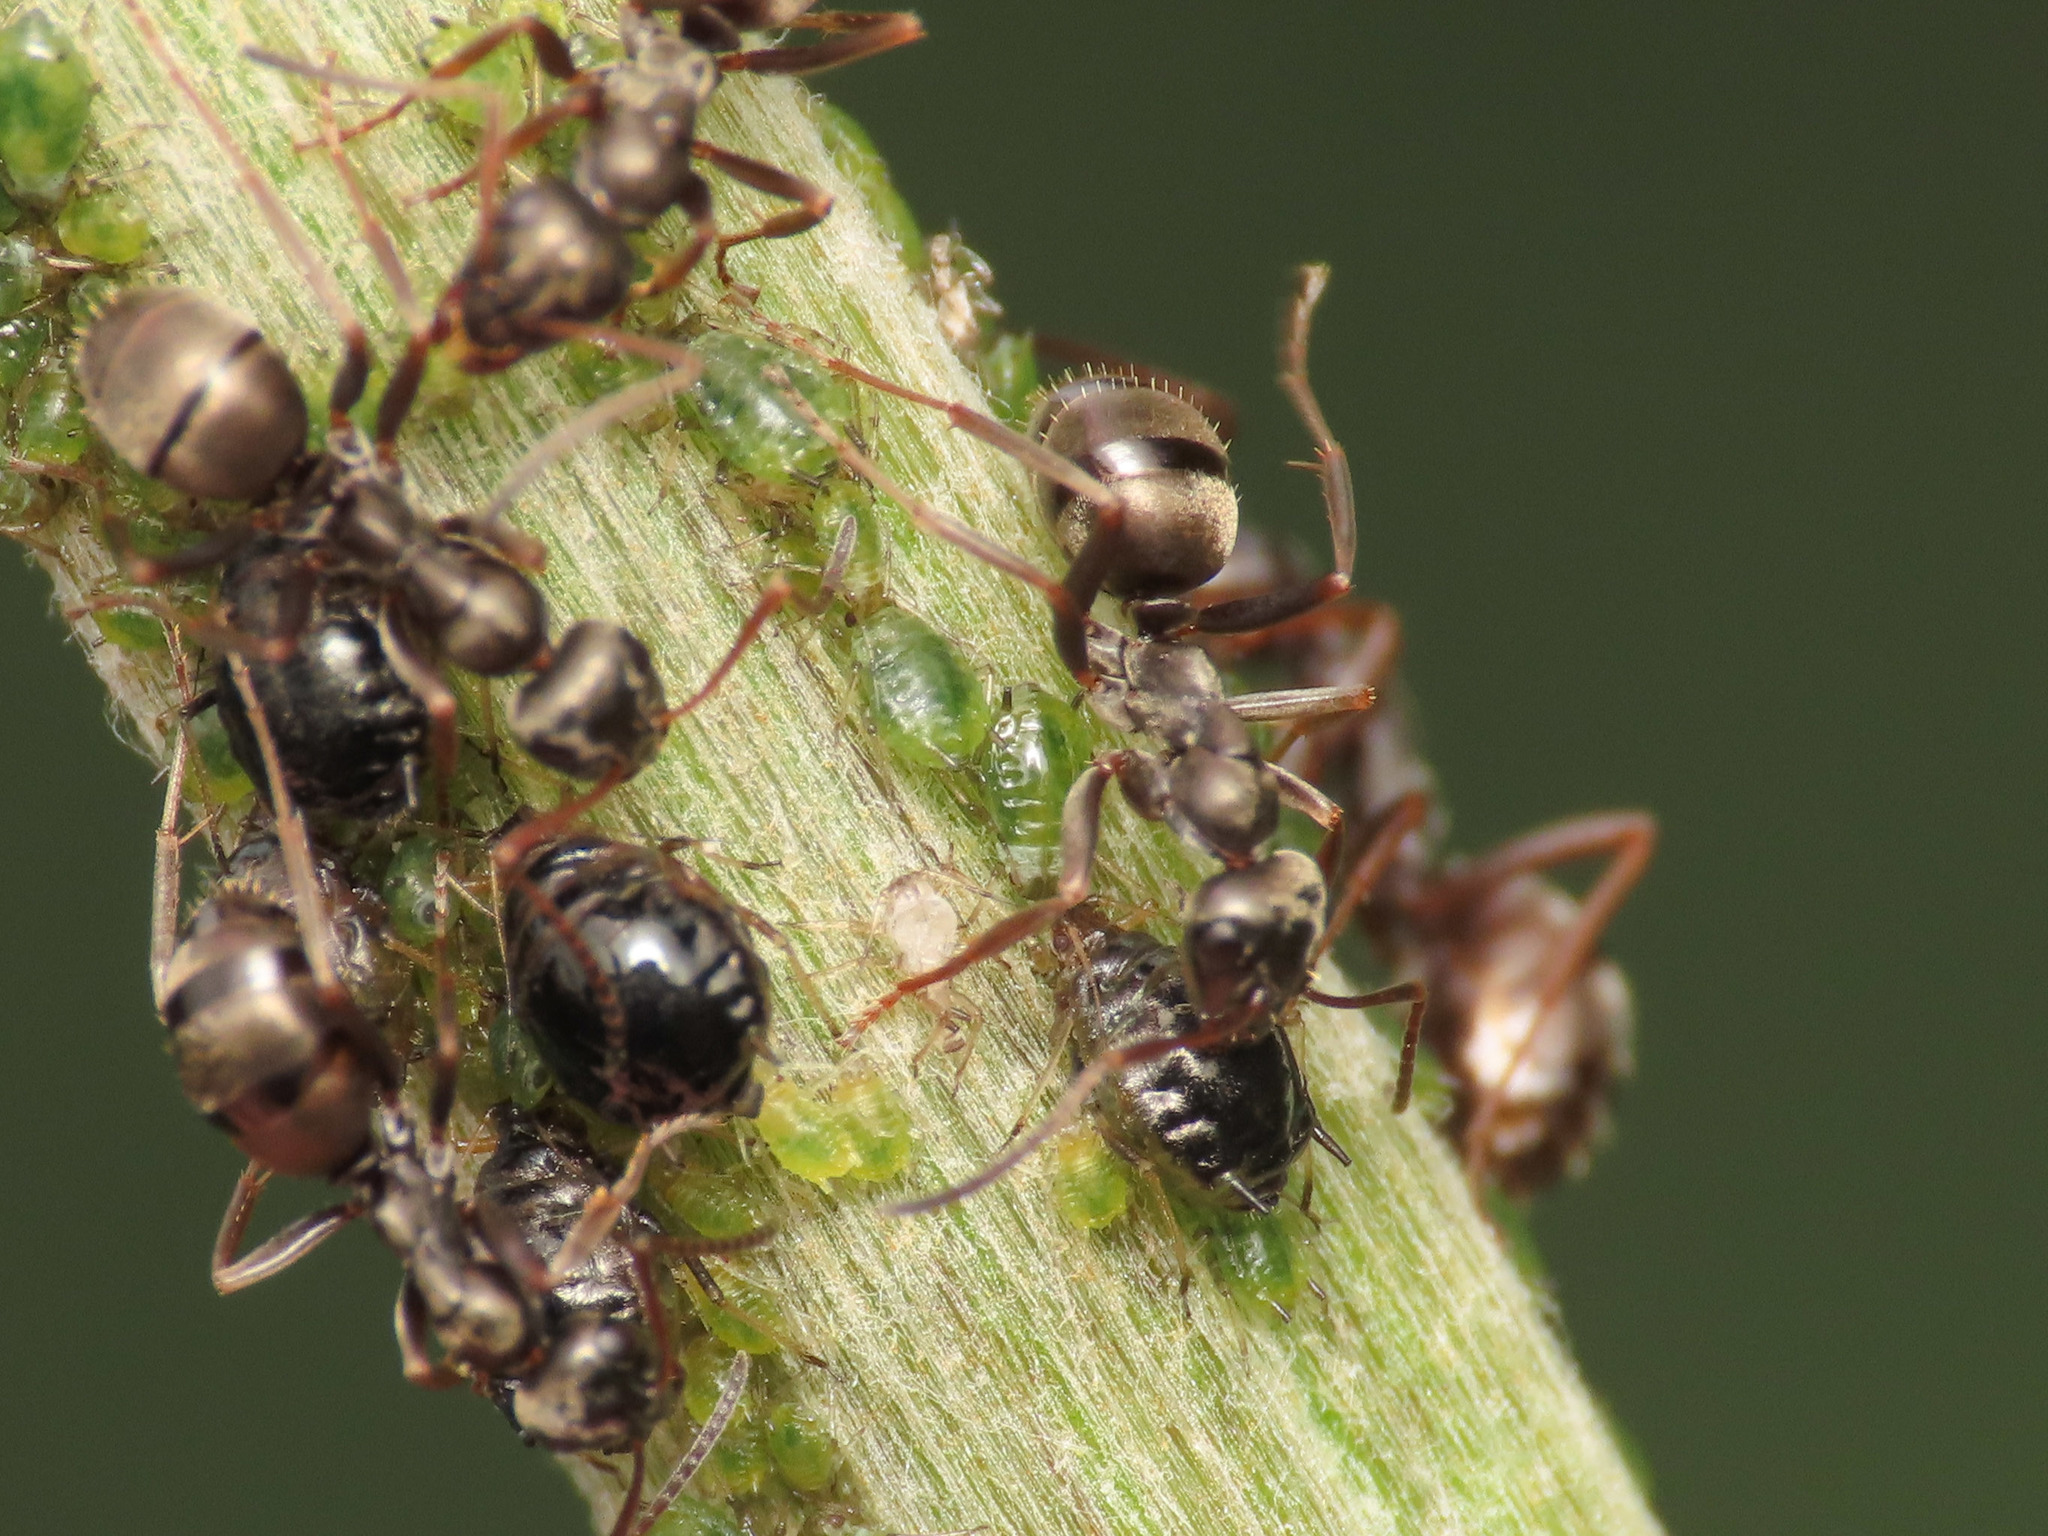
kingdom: Animalia
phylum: Arthropoda
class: Insecta
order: Hemiptera
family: Aphididae
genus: Brachycaudus
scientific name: Brachycaudus cardui
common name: Thistle aphid
